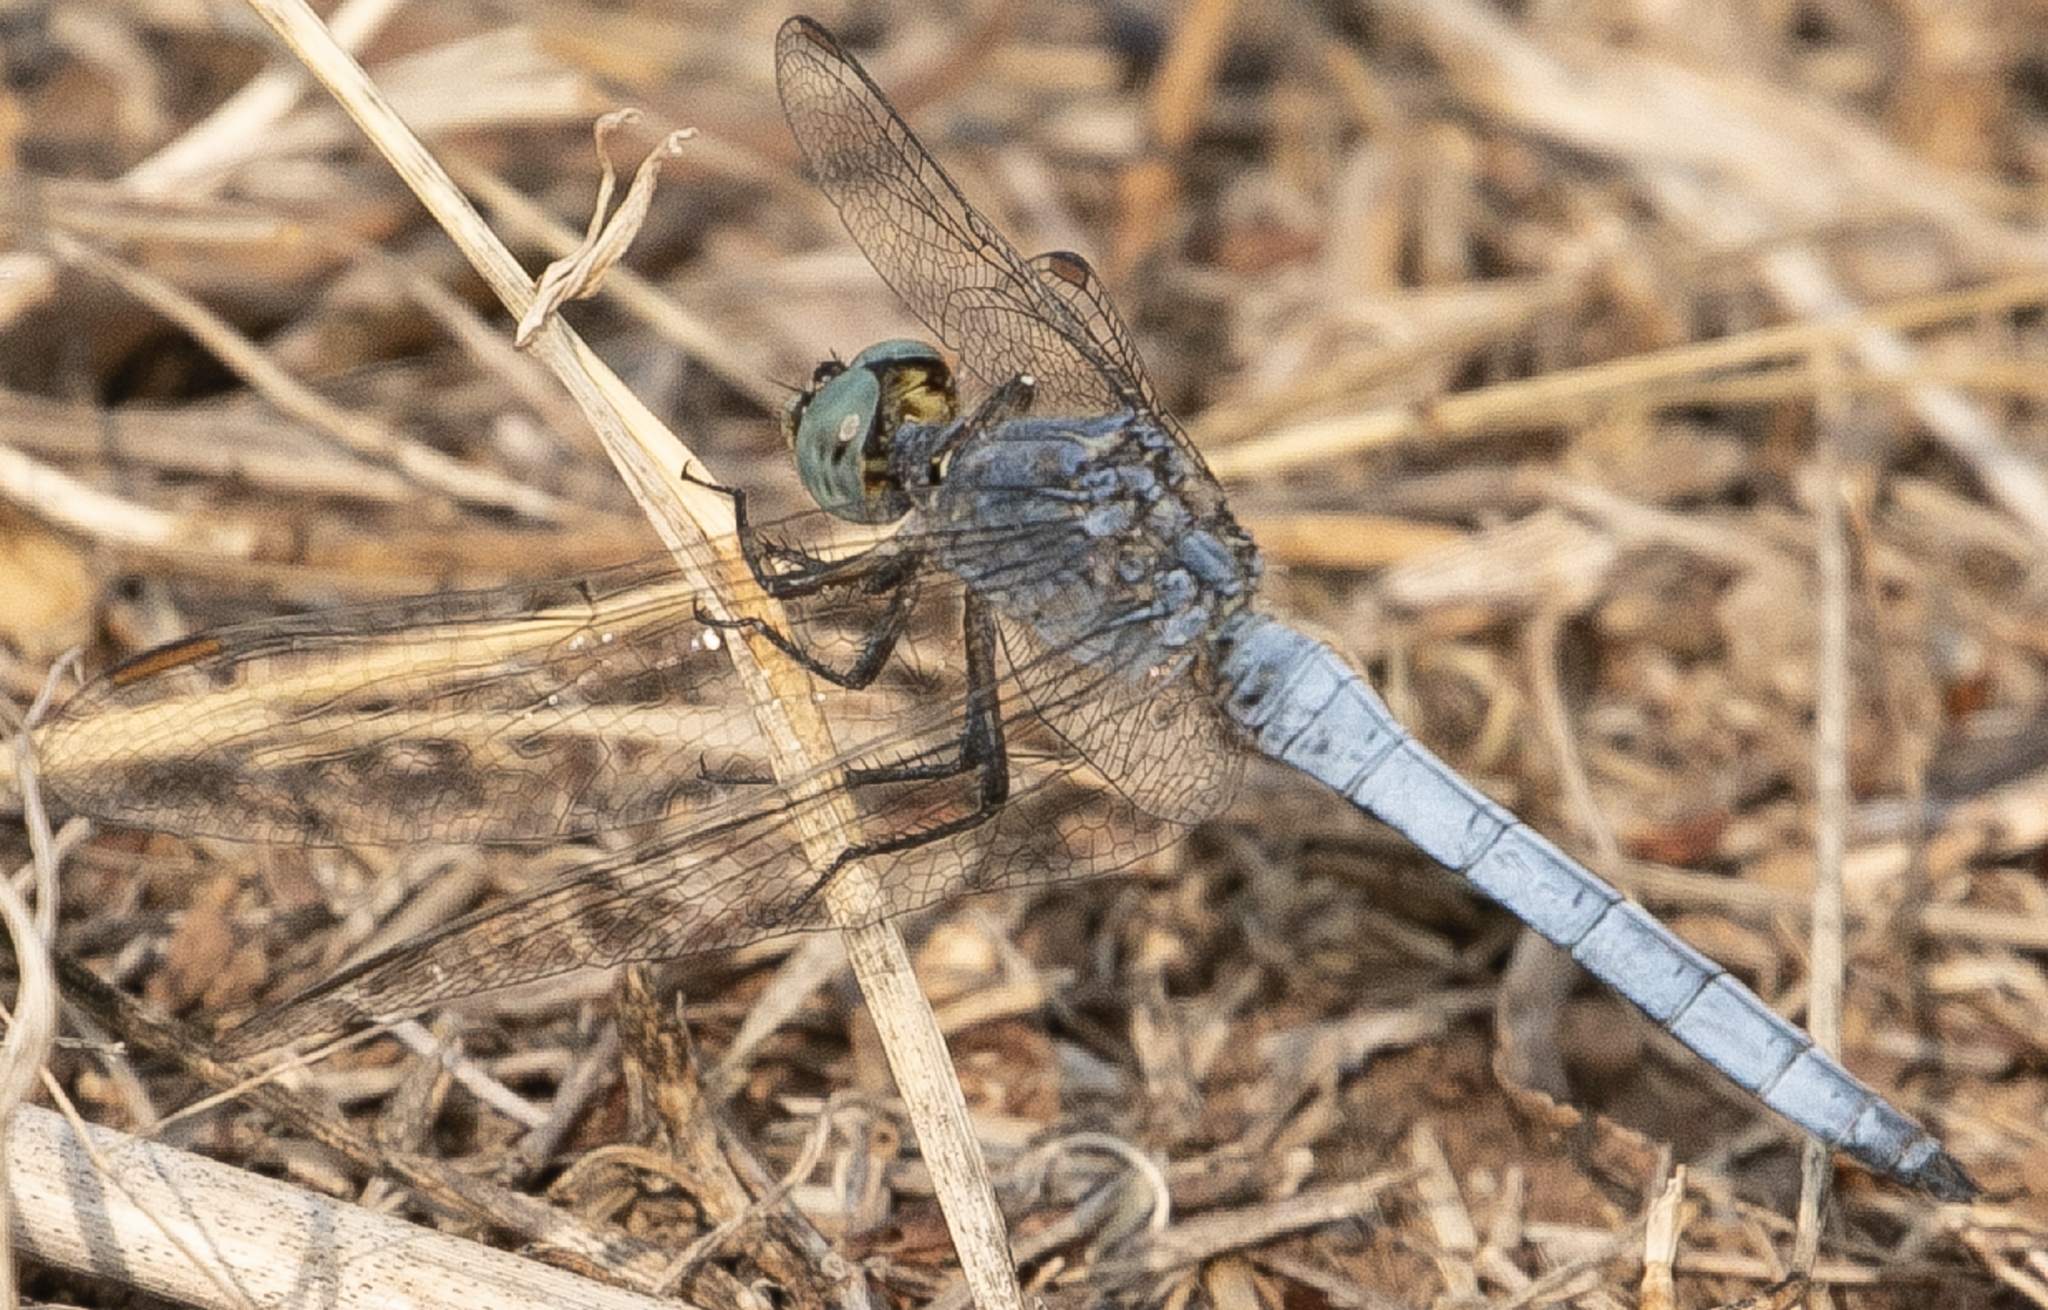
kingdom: Animalia
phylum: Arthropoda
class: Insecta
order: Odonata
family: Libellulidae
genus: Orthetrum
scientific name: Orthetrum coerulescens
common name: Keeled skimmer
